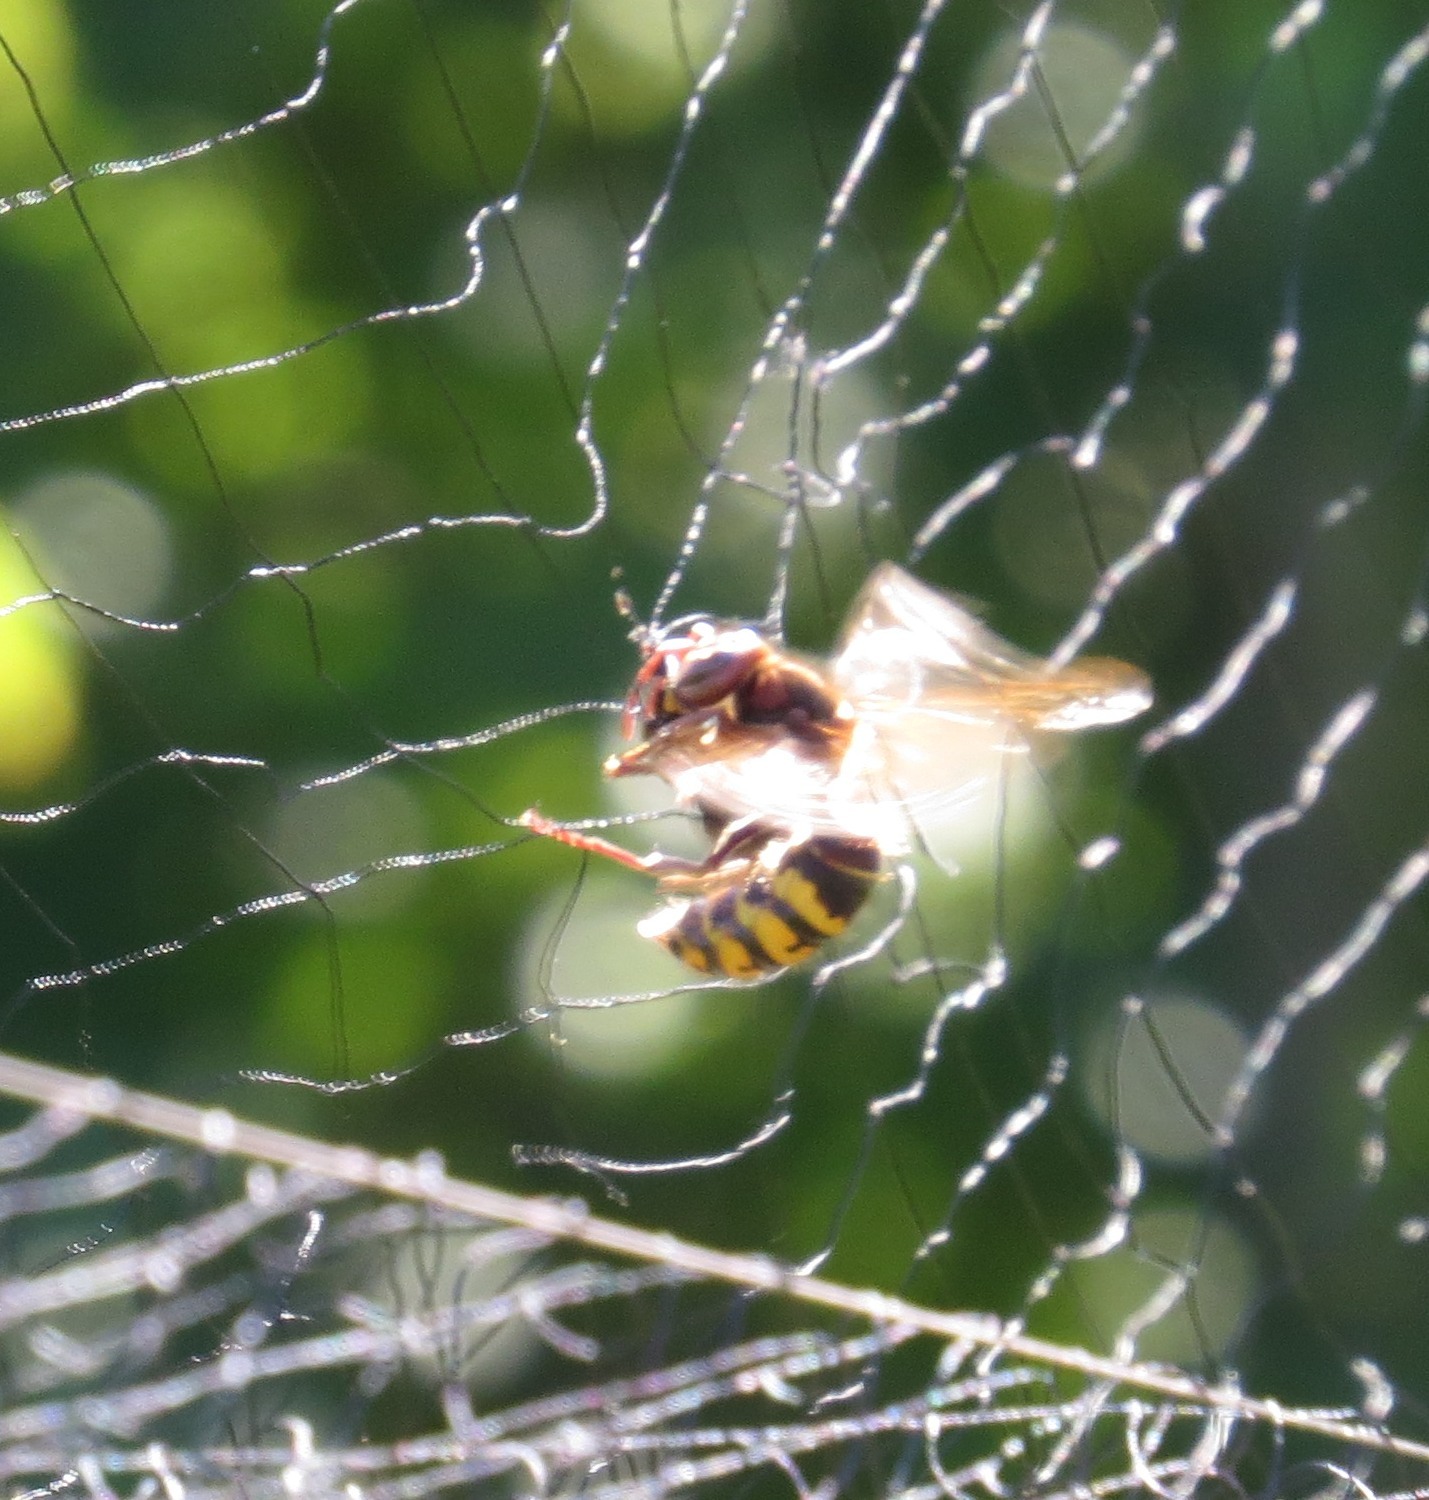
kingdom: Animalia
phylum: Arthropoda
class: Insecta
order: Hymenoptera
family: Vespidae
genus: Vespa
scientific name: Vespa crabro
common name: Hornet
